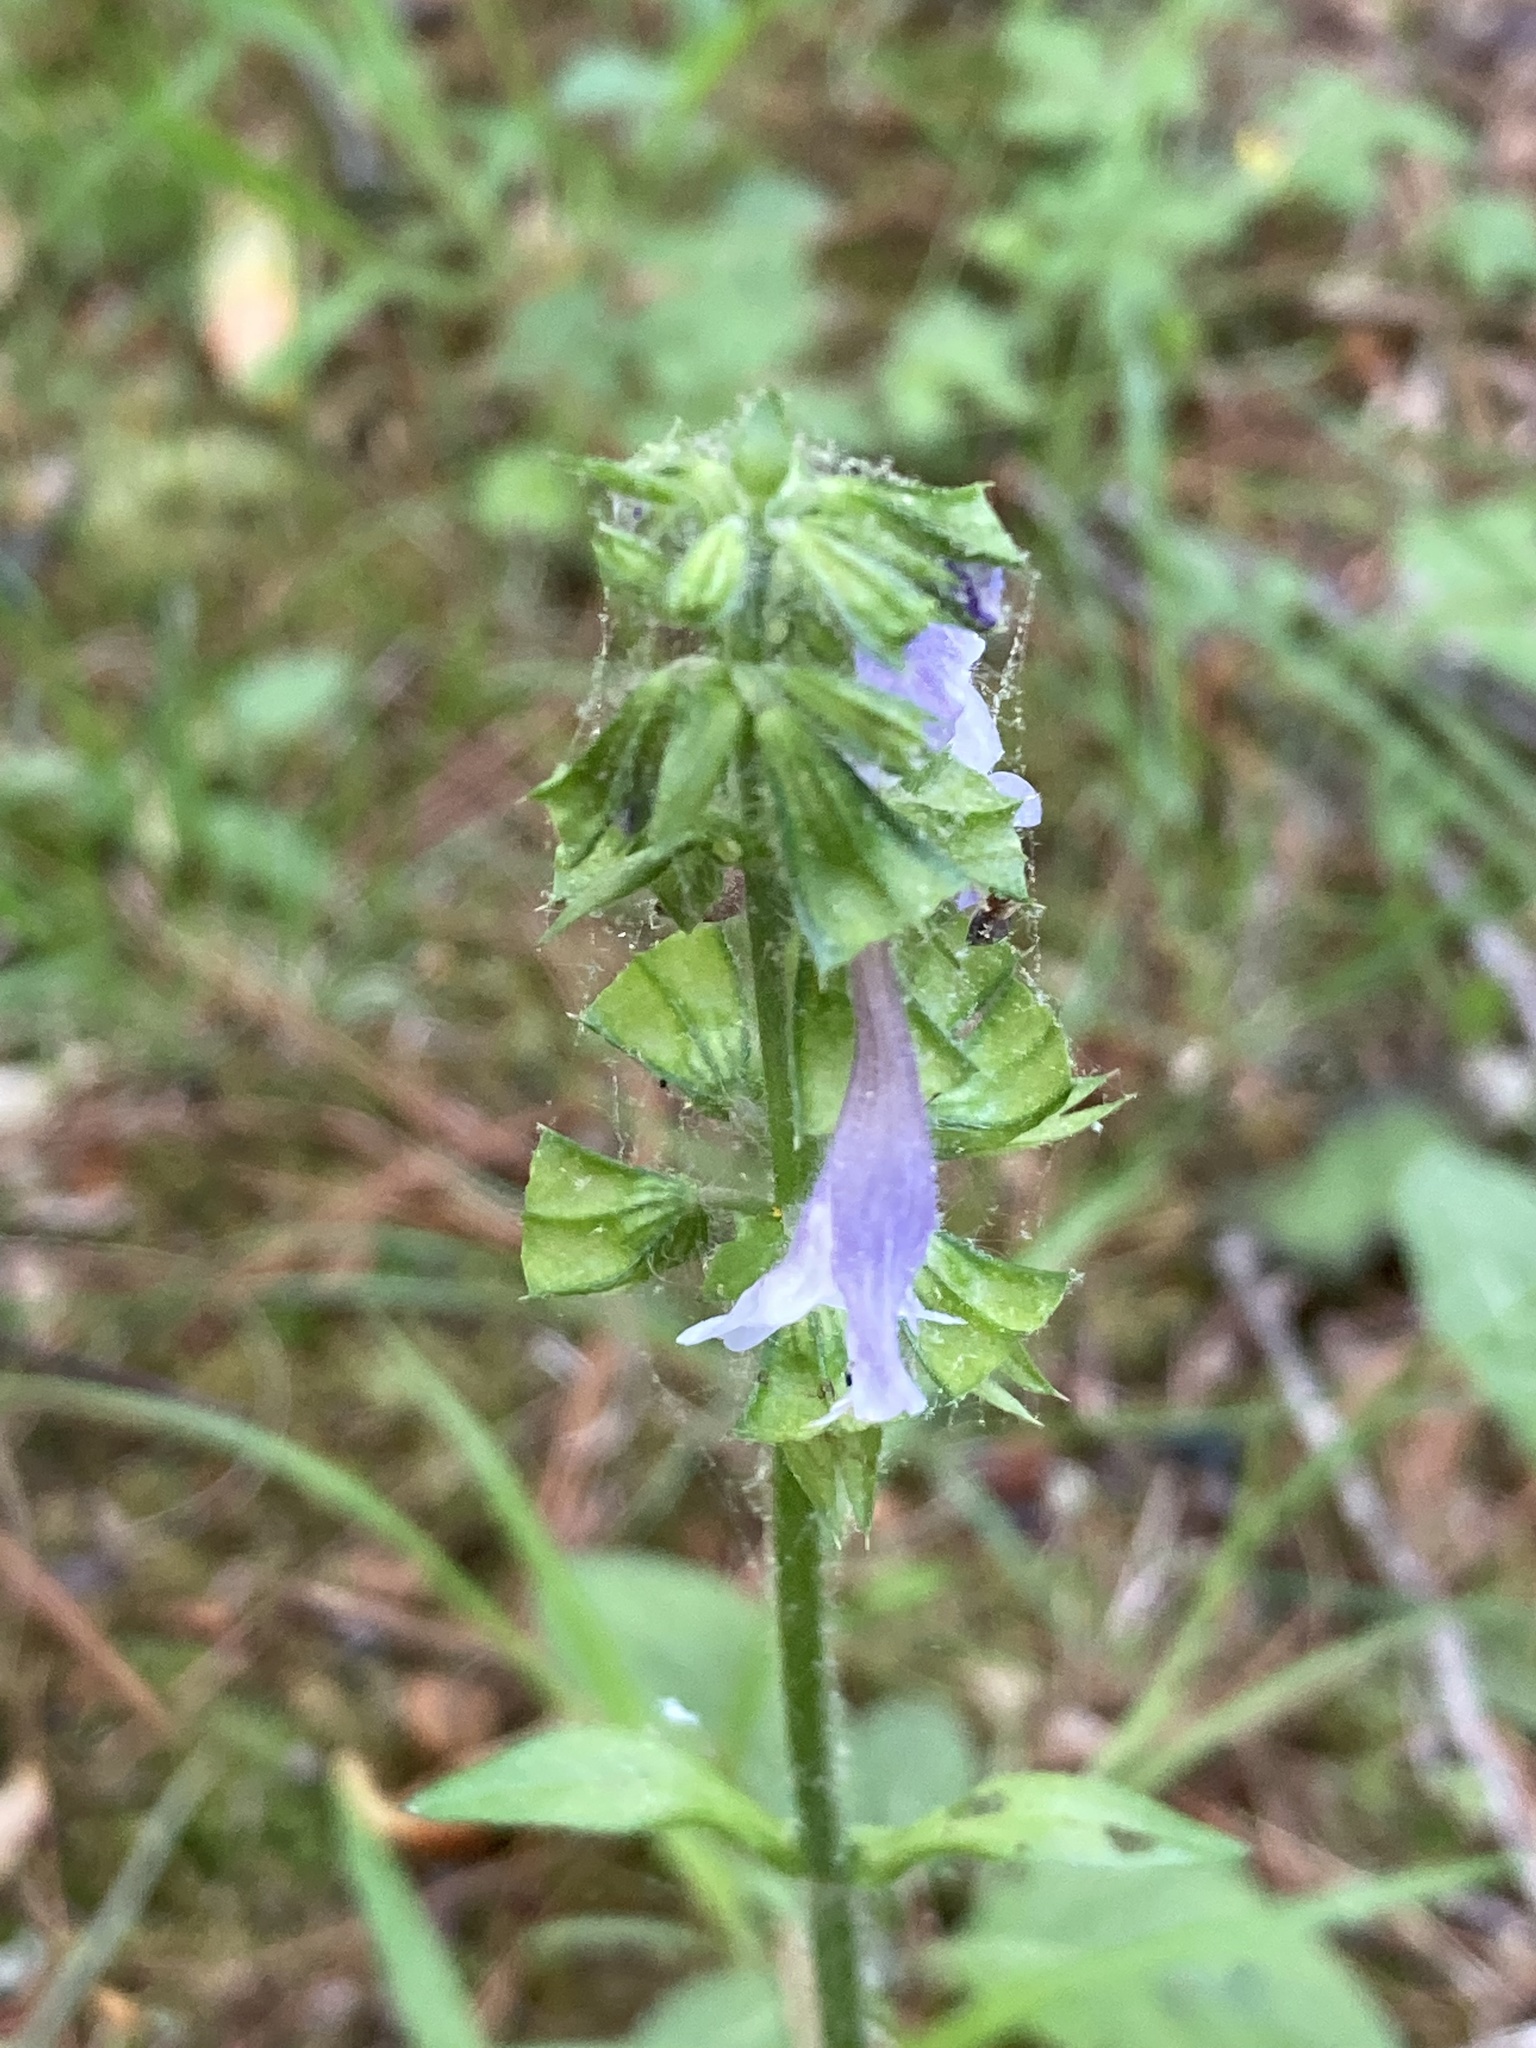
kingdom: Plantae
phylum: Tracheophyta
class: Magnoliopsida
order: Lamiales
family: Lamiaceae
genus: Salvia
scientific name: Salvia lyrata
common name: Cancerweed
